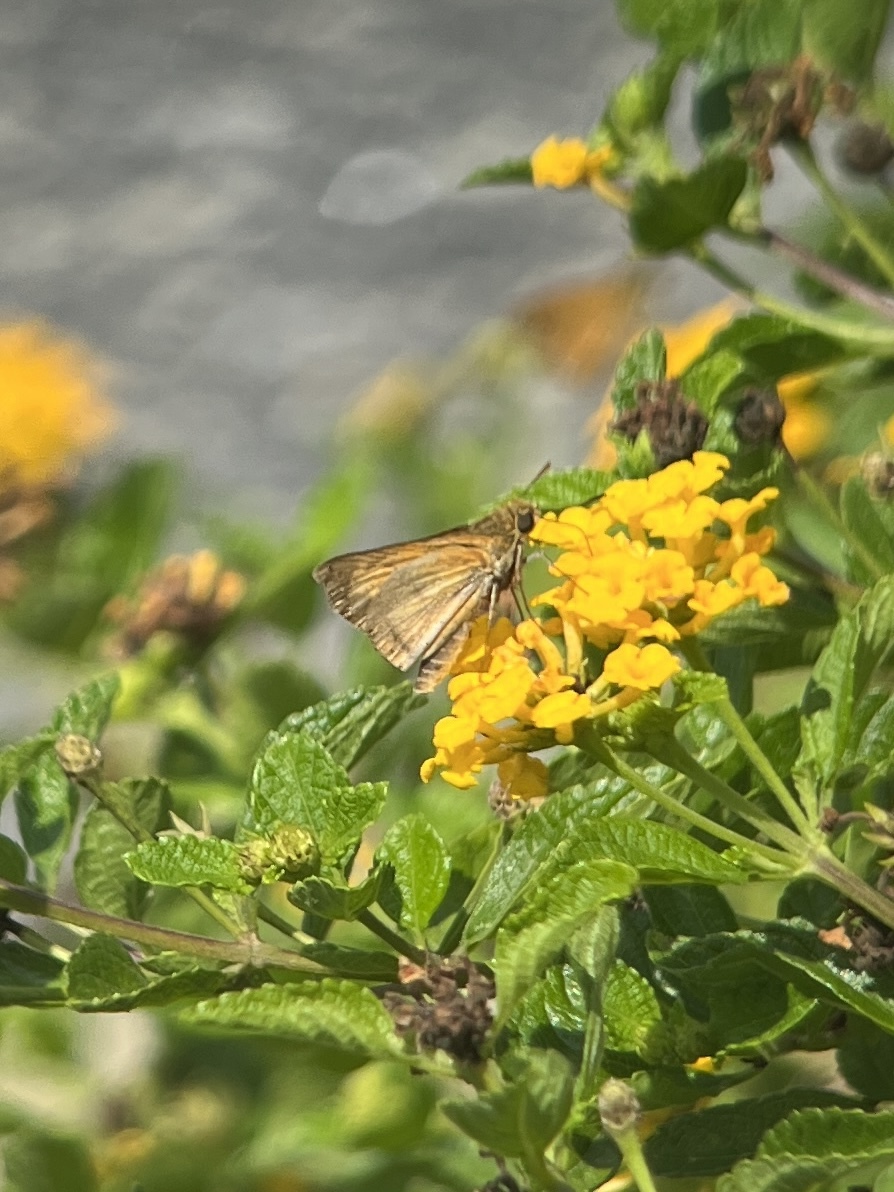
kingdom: Animalia
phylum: Arthropoda
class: Insecta
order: Lepidoptera
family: Hesperiidae
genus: Atalopedes
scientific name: Atalopedes
